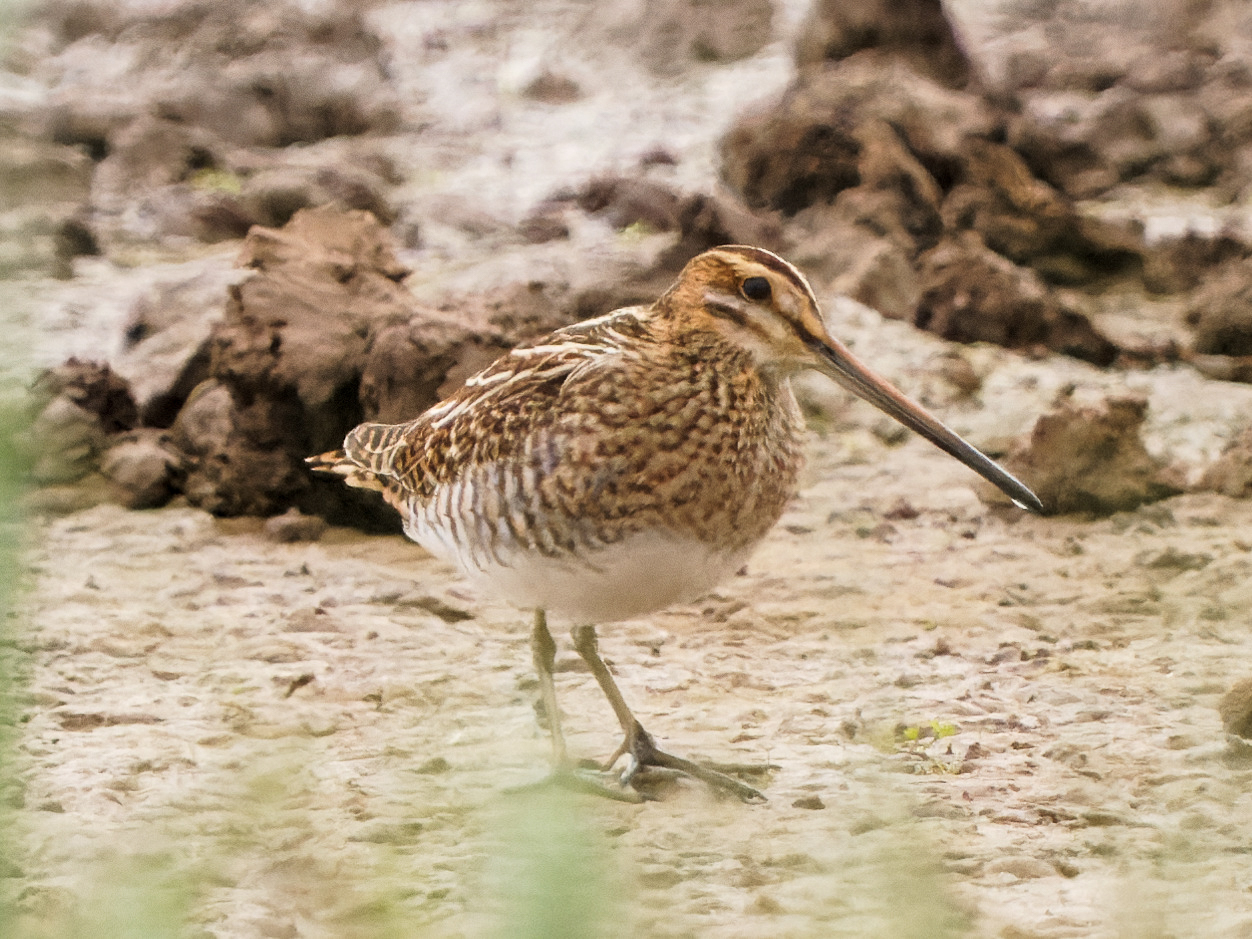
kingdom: Animalia
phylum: Chordata
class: Aves
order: Charadriiformes
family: Scolopacidae
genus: Gallinago
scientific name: Gallinago gallinago
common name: Common snipe
